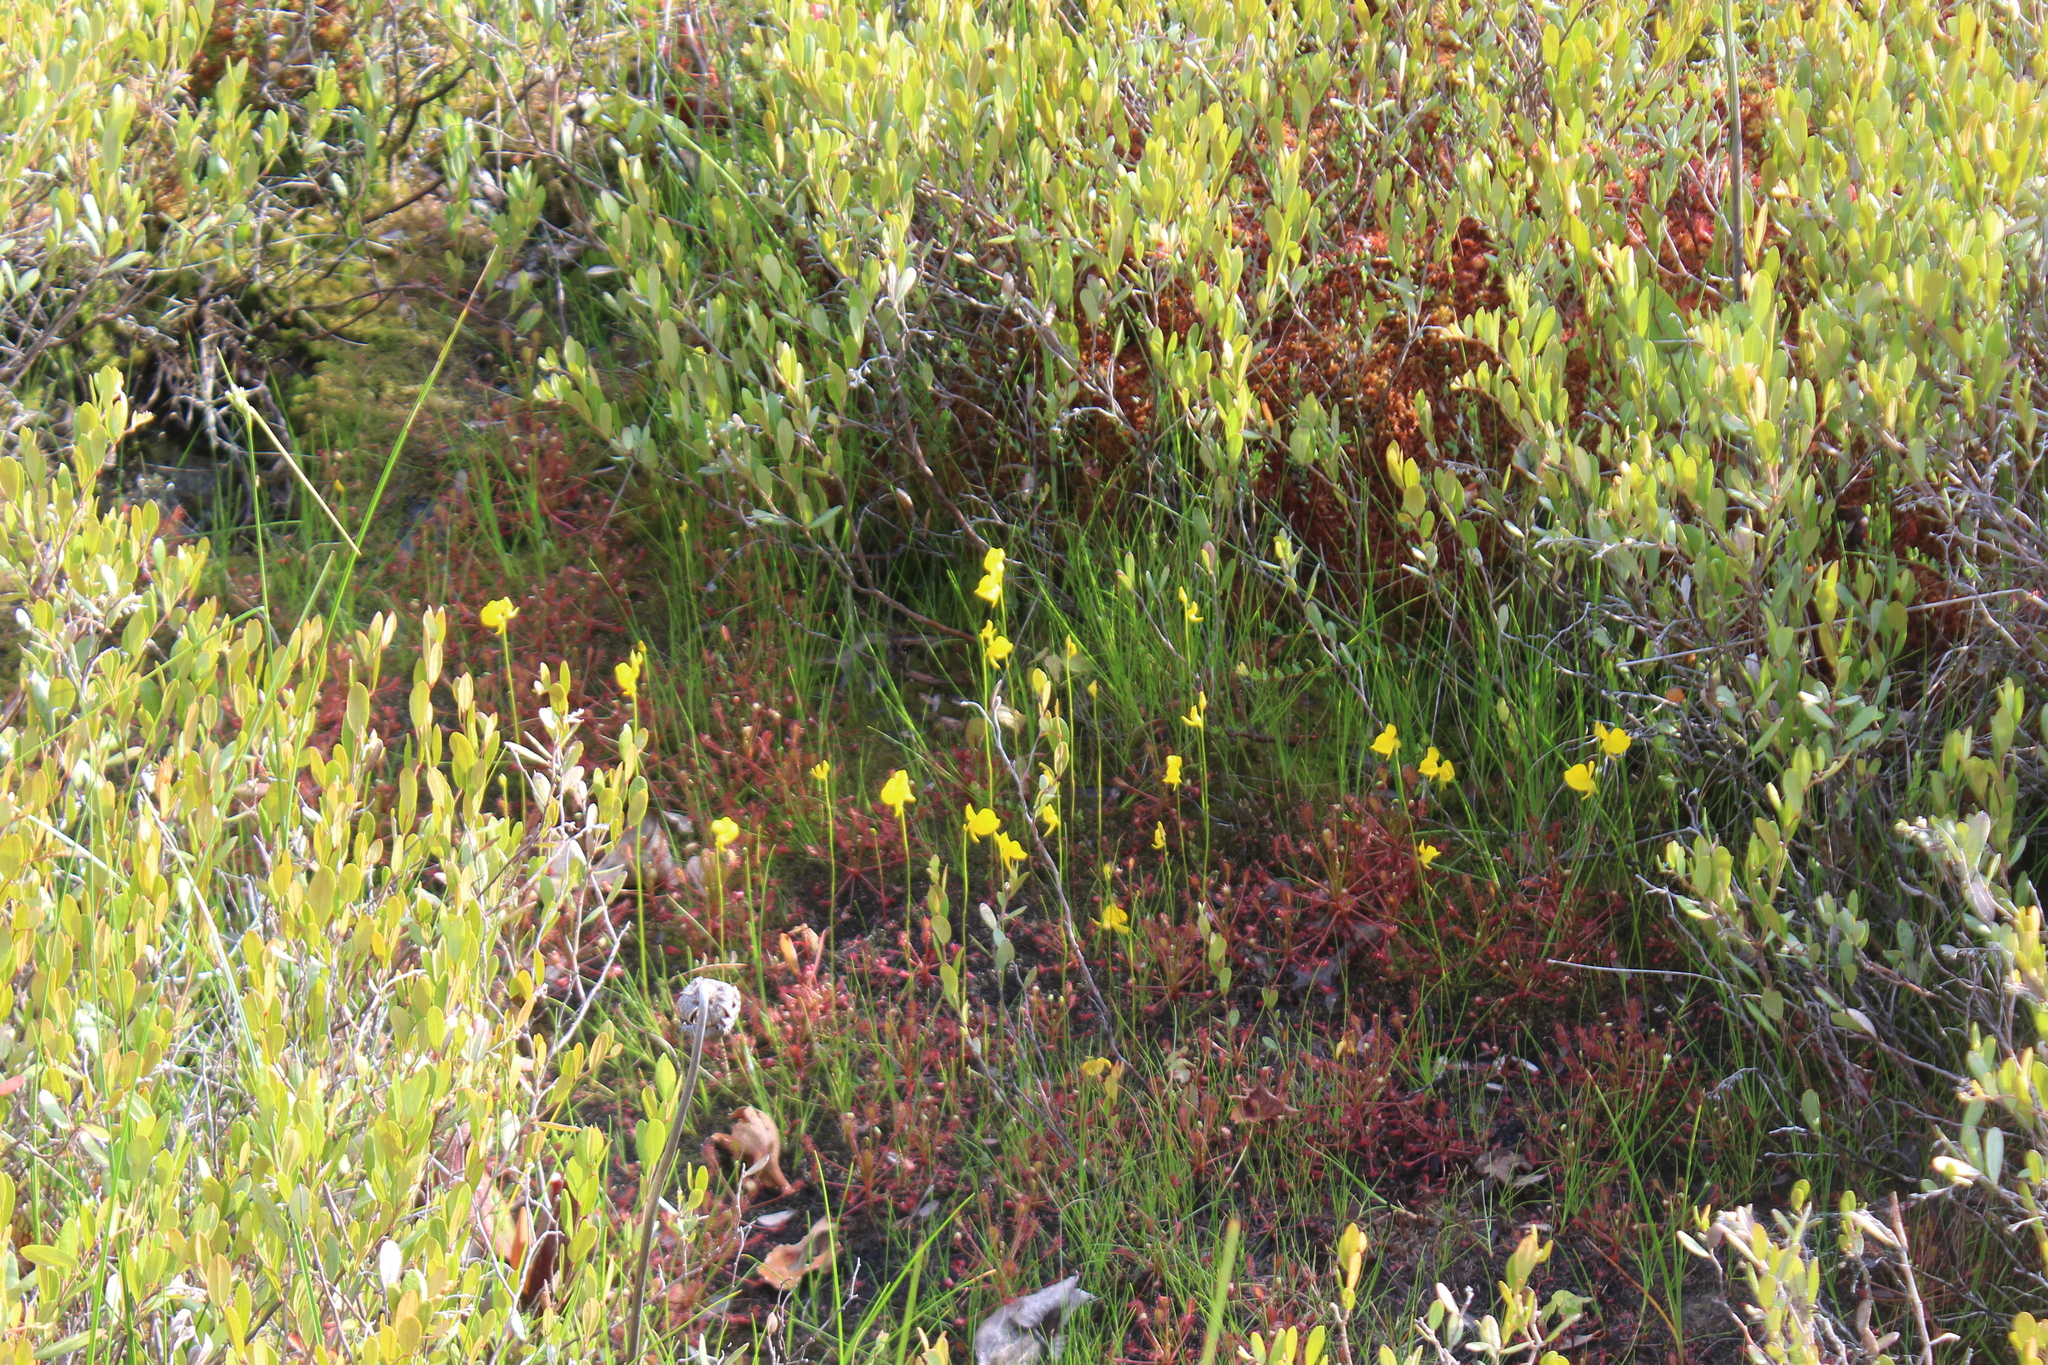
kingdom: Plantae
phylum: Tracheophyta
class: Magnoliopsida
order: Lamiales
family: Lentibulariaceae
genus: Utricularia
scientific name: Utricularia cornuta
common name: Horned bladderwort
